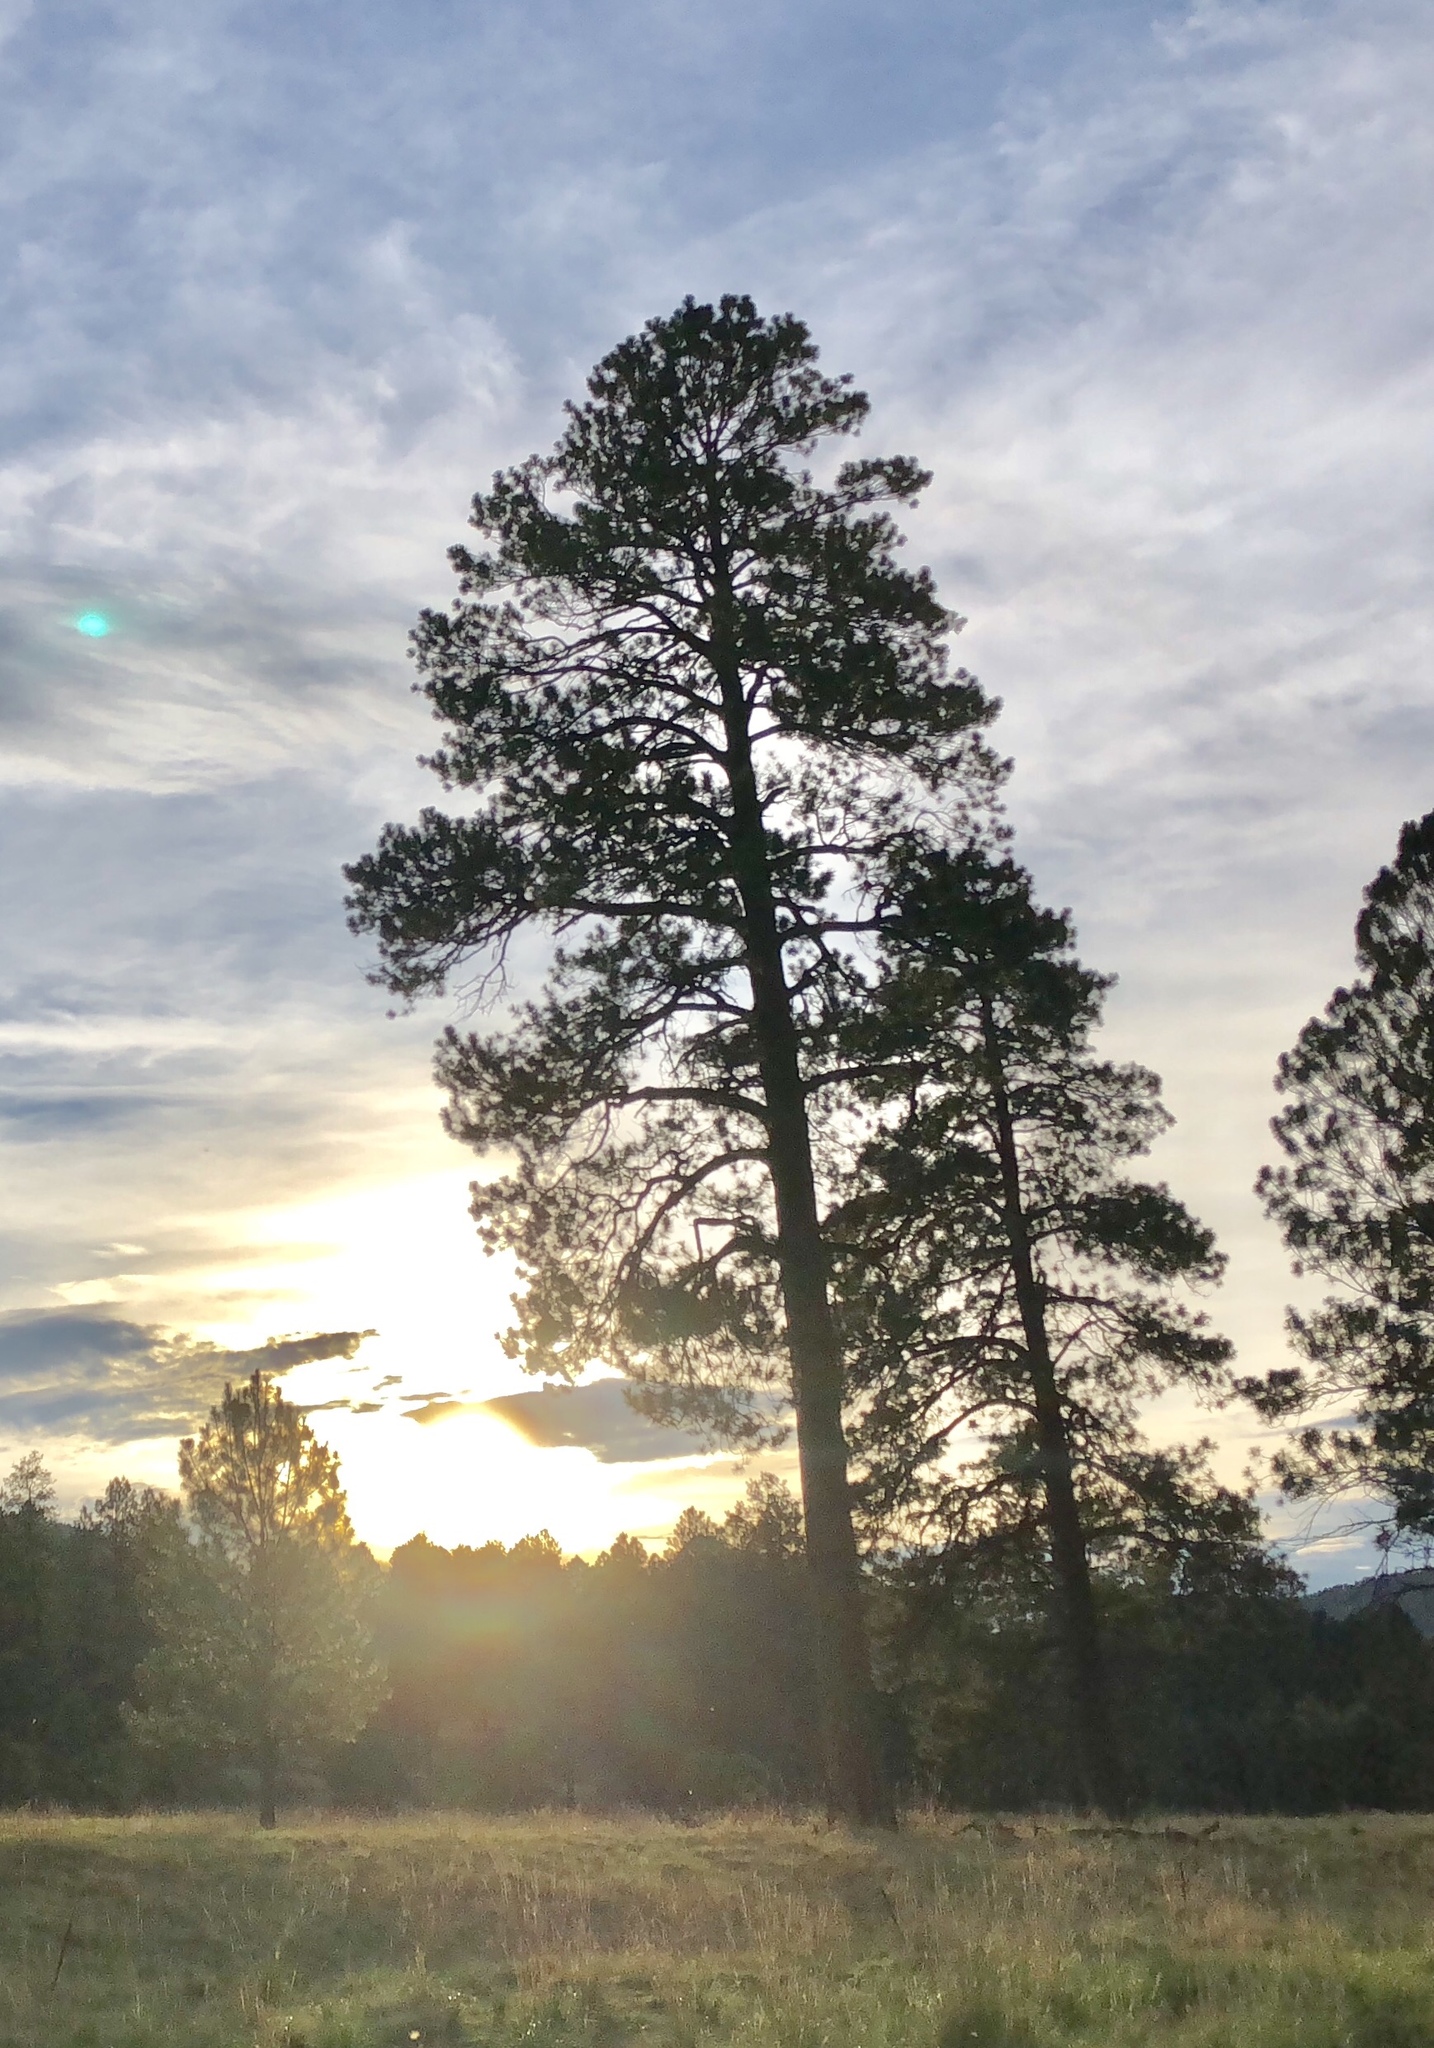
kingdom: Plantae
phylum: Tracheophyta
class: Pinopsida
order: Pinales
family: Pinaceae
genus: Pinus
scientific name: Pinus ponderosa
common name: Western yellow-pine
